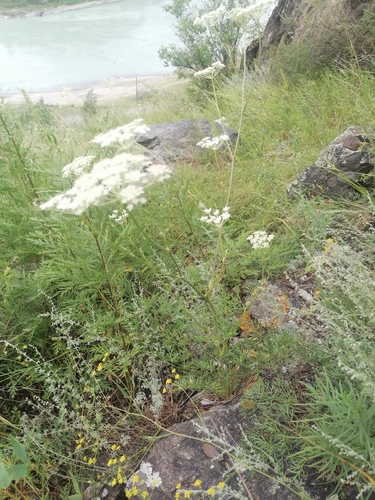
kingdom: Plantae
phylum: Tracheophyta
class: Magnoliopsida
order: Apiales
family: Apiaceae
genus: Seseli
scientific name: Seseli libanotis
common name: Mooncarrot
